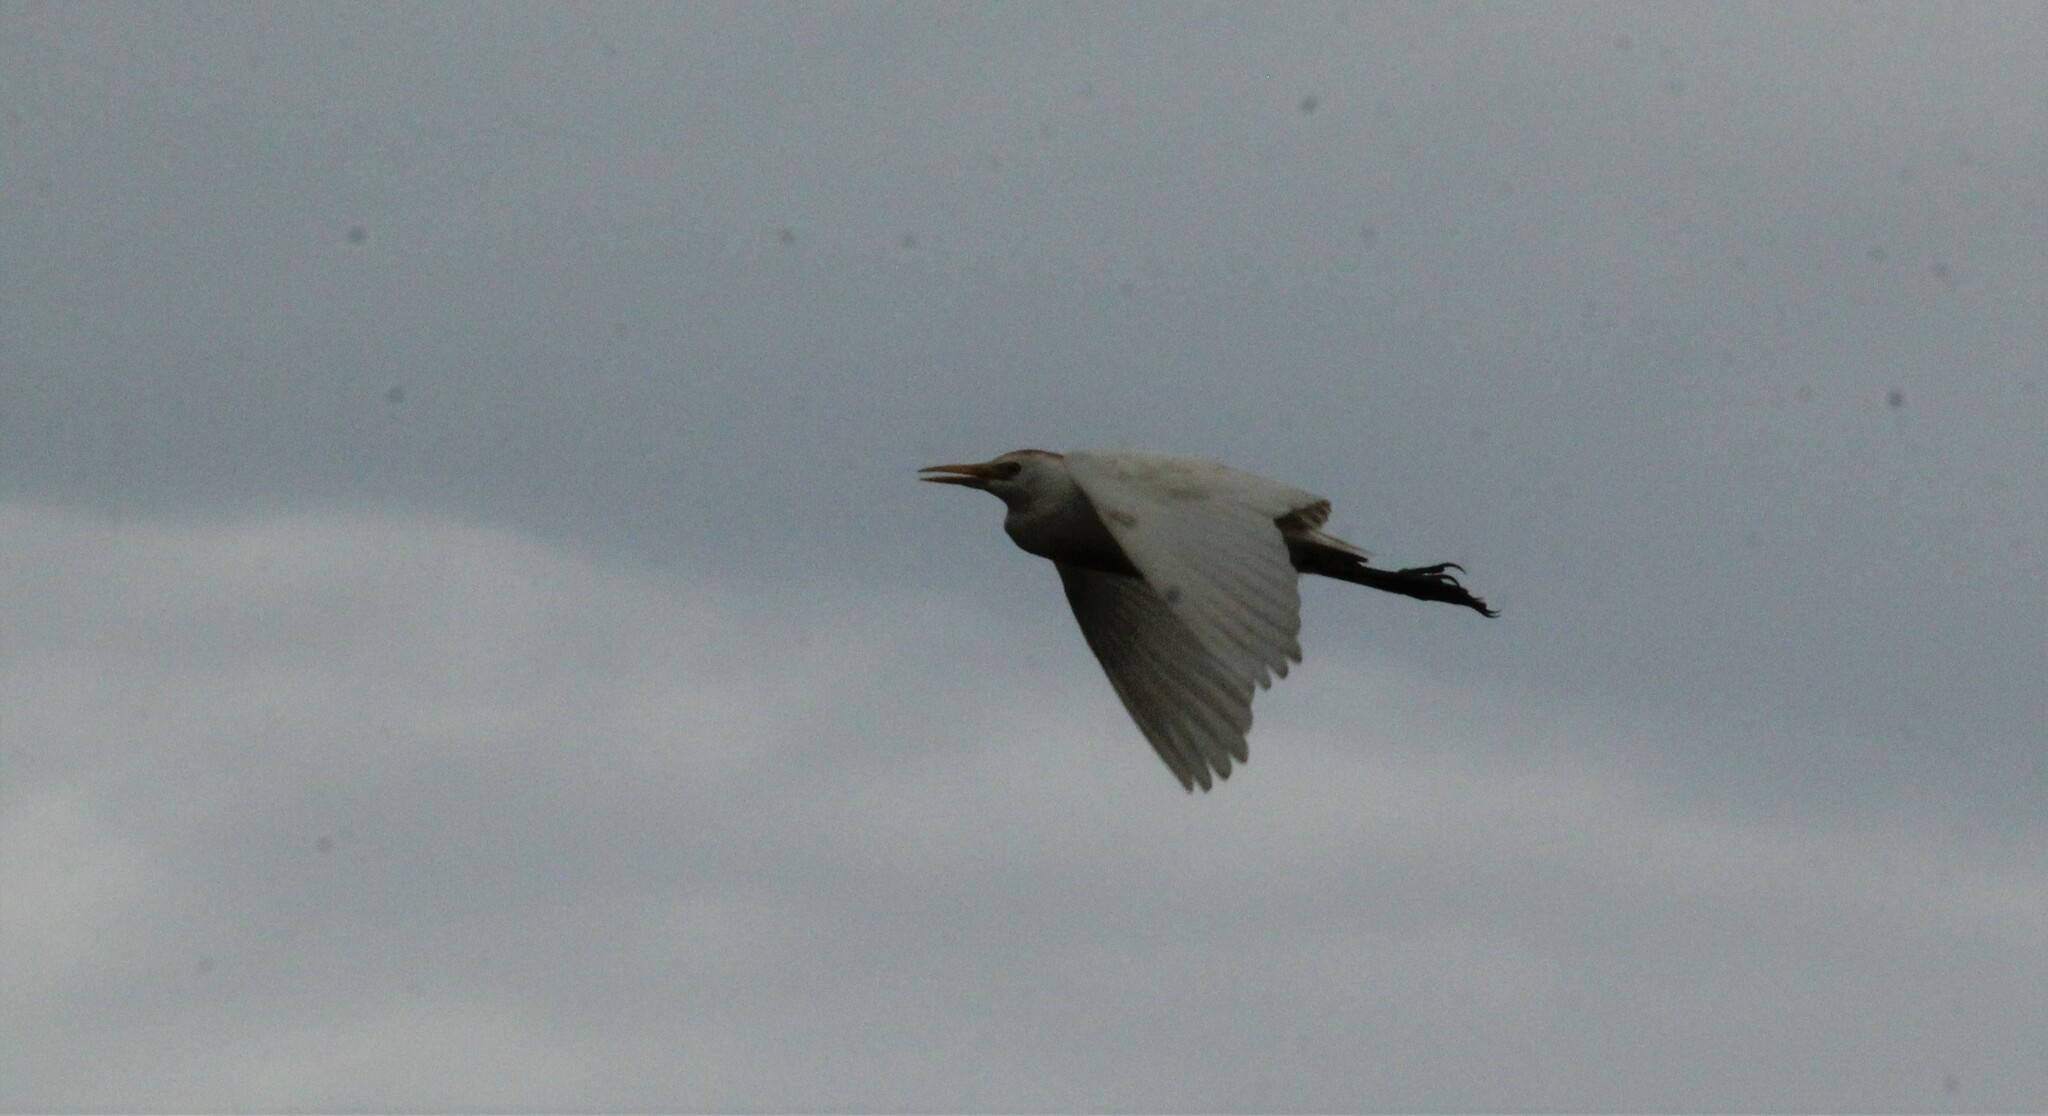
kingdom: Animalia
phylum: Chordata
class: Aves
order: Pelecaniformes
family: Ardeidae
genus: Bubulcus
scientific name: Bubulcus ibis
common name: Cattle egret
